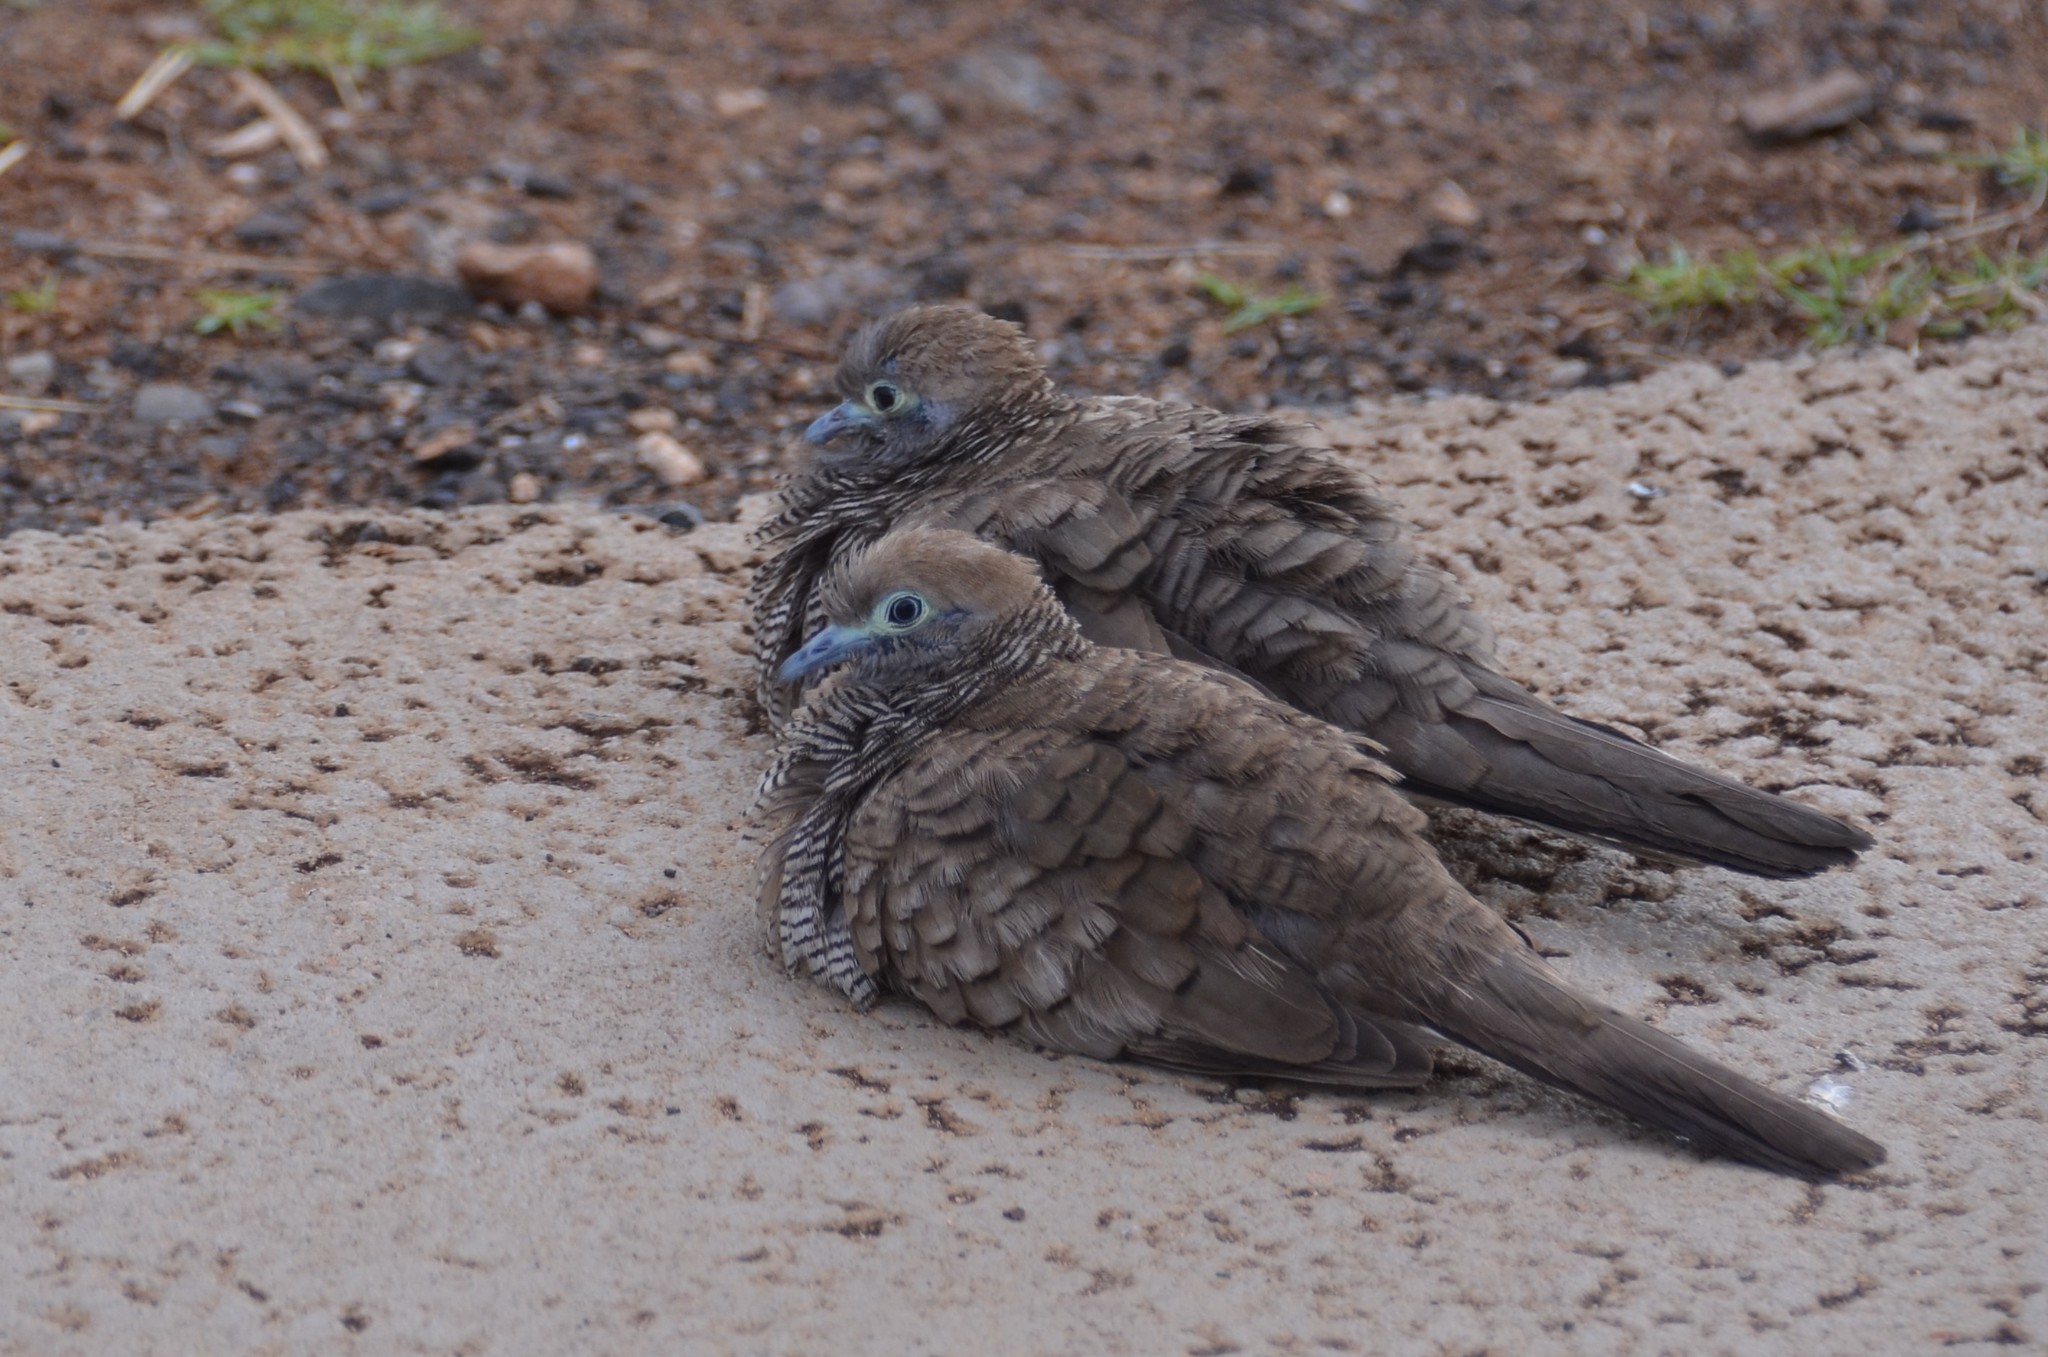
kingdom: Animalia
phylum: Chordata
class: Aves
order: Columbiformes
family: Columbidae
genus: Geopelia
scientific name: Geopelia striata
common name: Zebra dove
